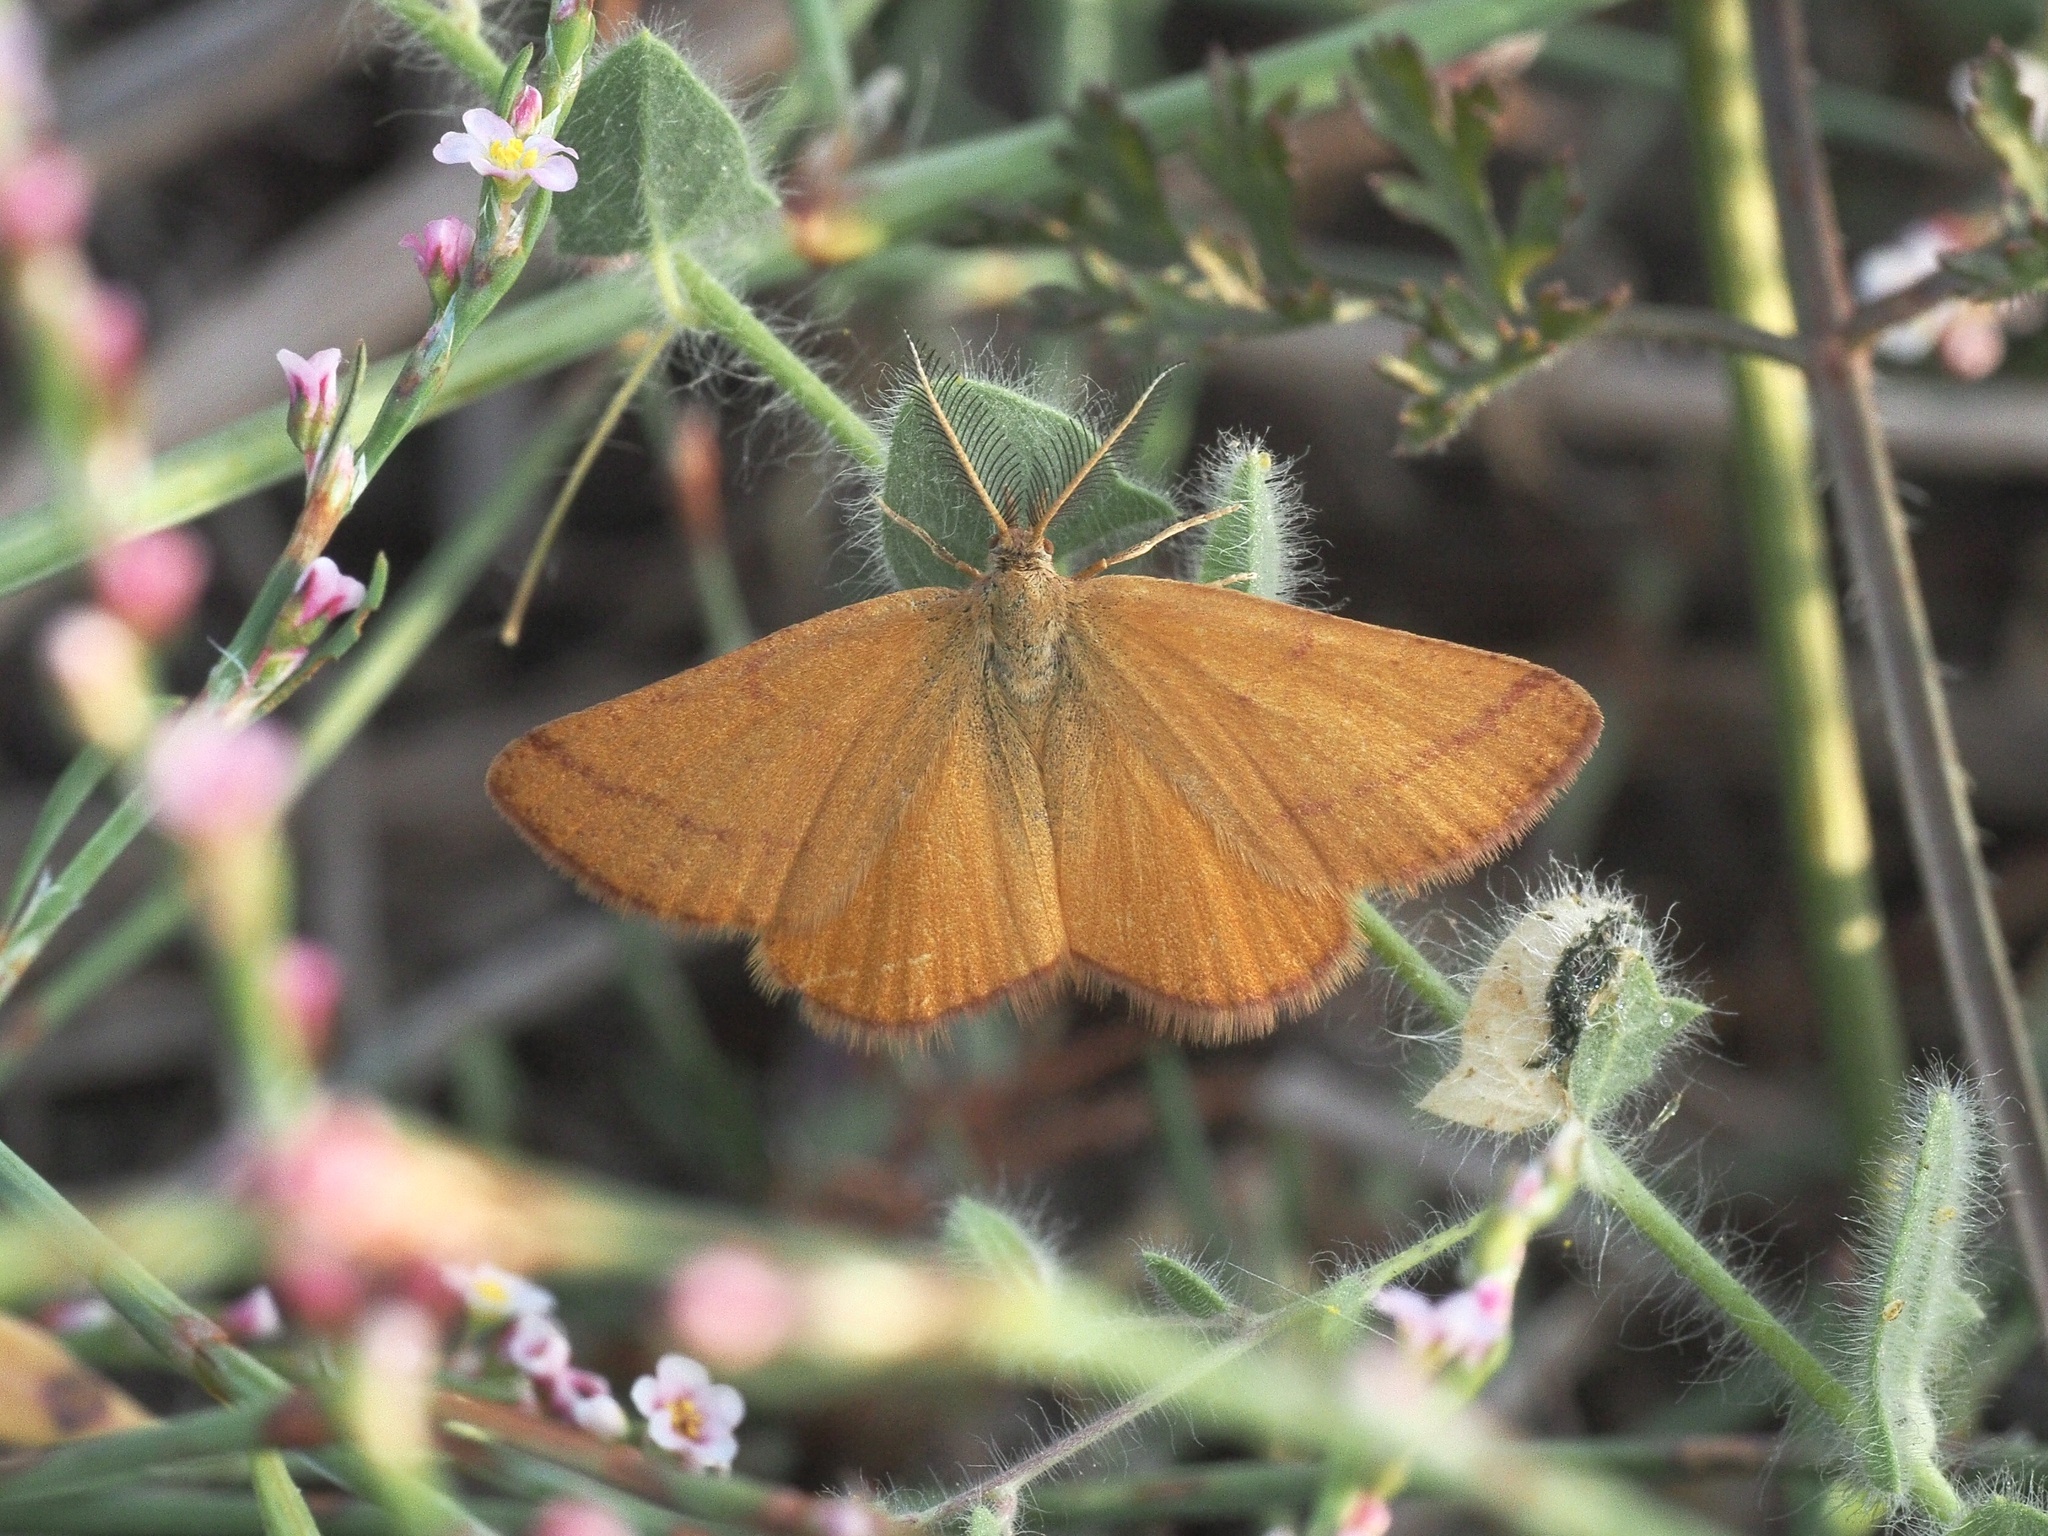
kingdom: Animalia
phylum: Arthropoda
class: Insecta
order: Lepidoptera
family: Geometridae
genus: Lythria
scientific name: Lythria purpuraria
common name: Purple-barred yellow
